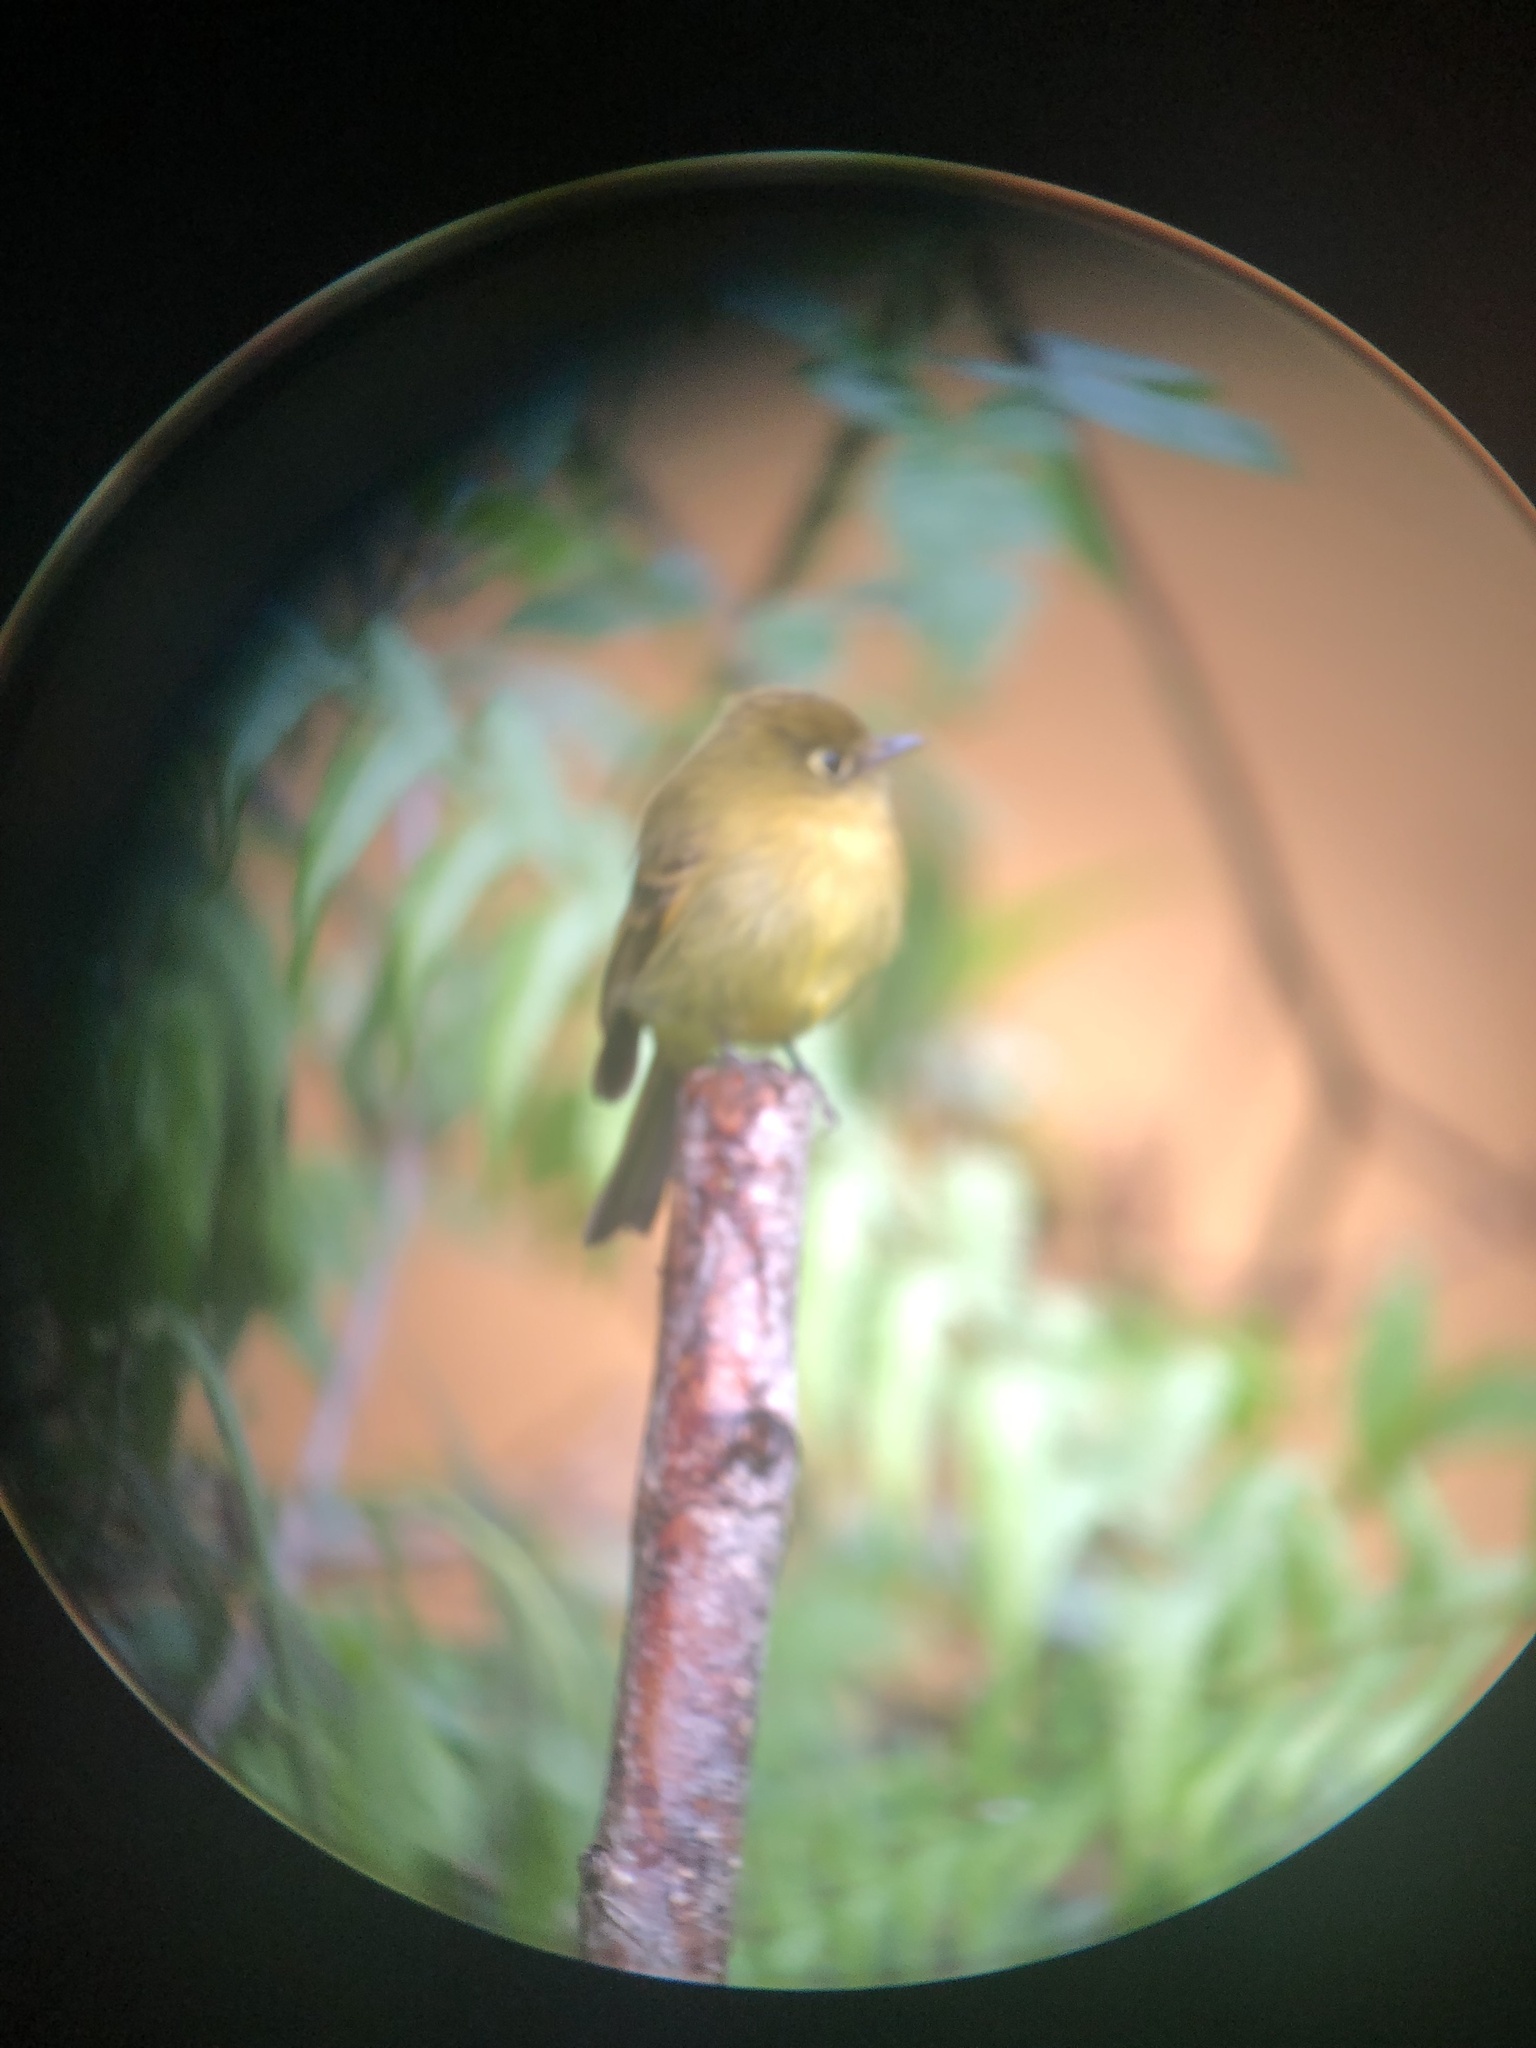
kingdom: Animalia
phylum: Chordata
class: Aves
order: Passeriformes
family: Tyrannidae
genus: Empidonax
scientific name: Empidonax flavescens
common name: Yellowish flycatcher
